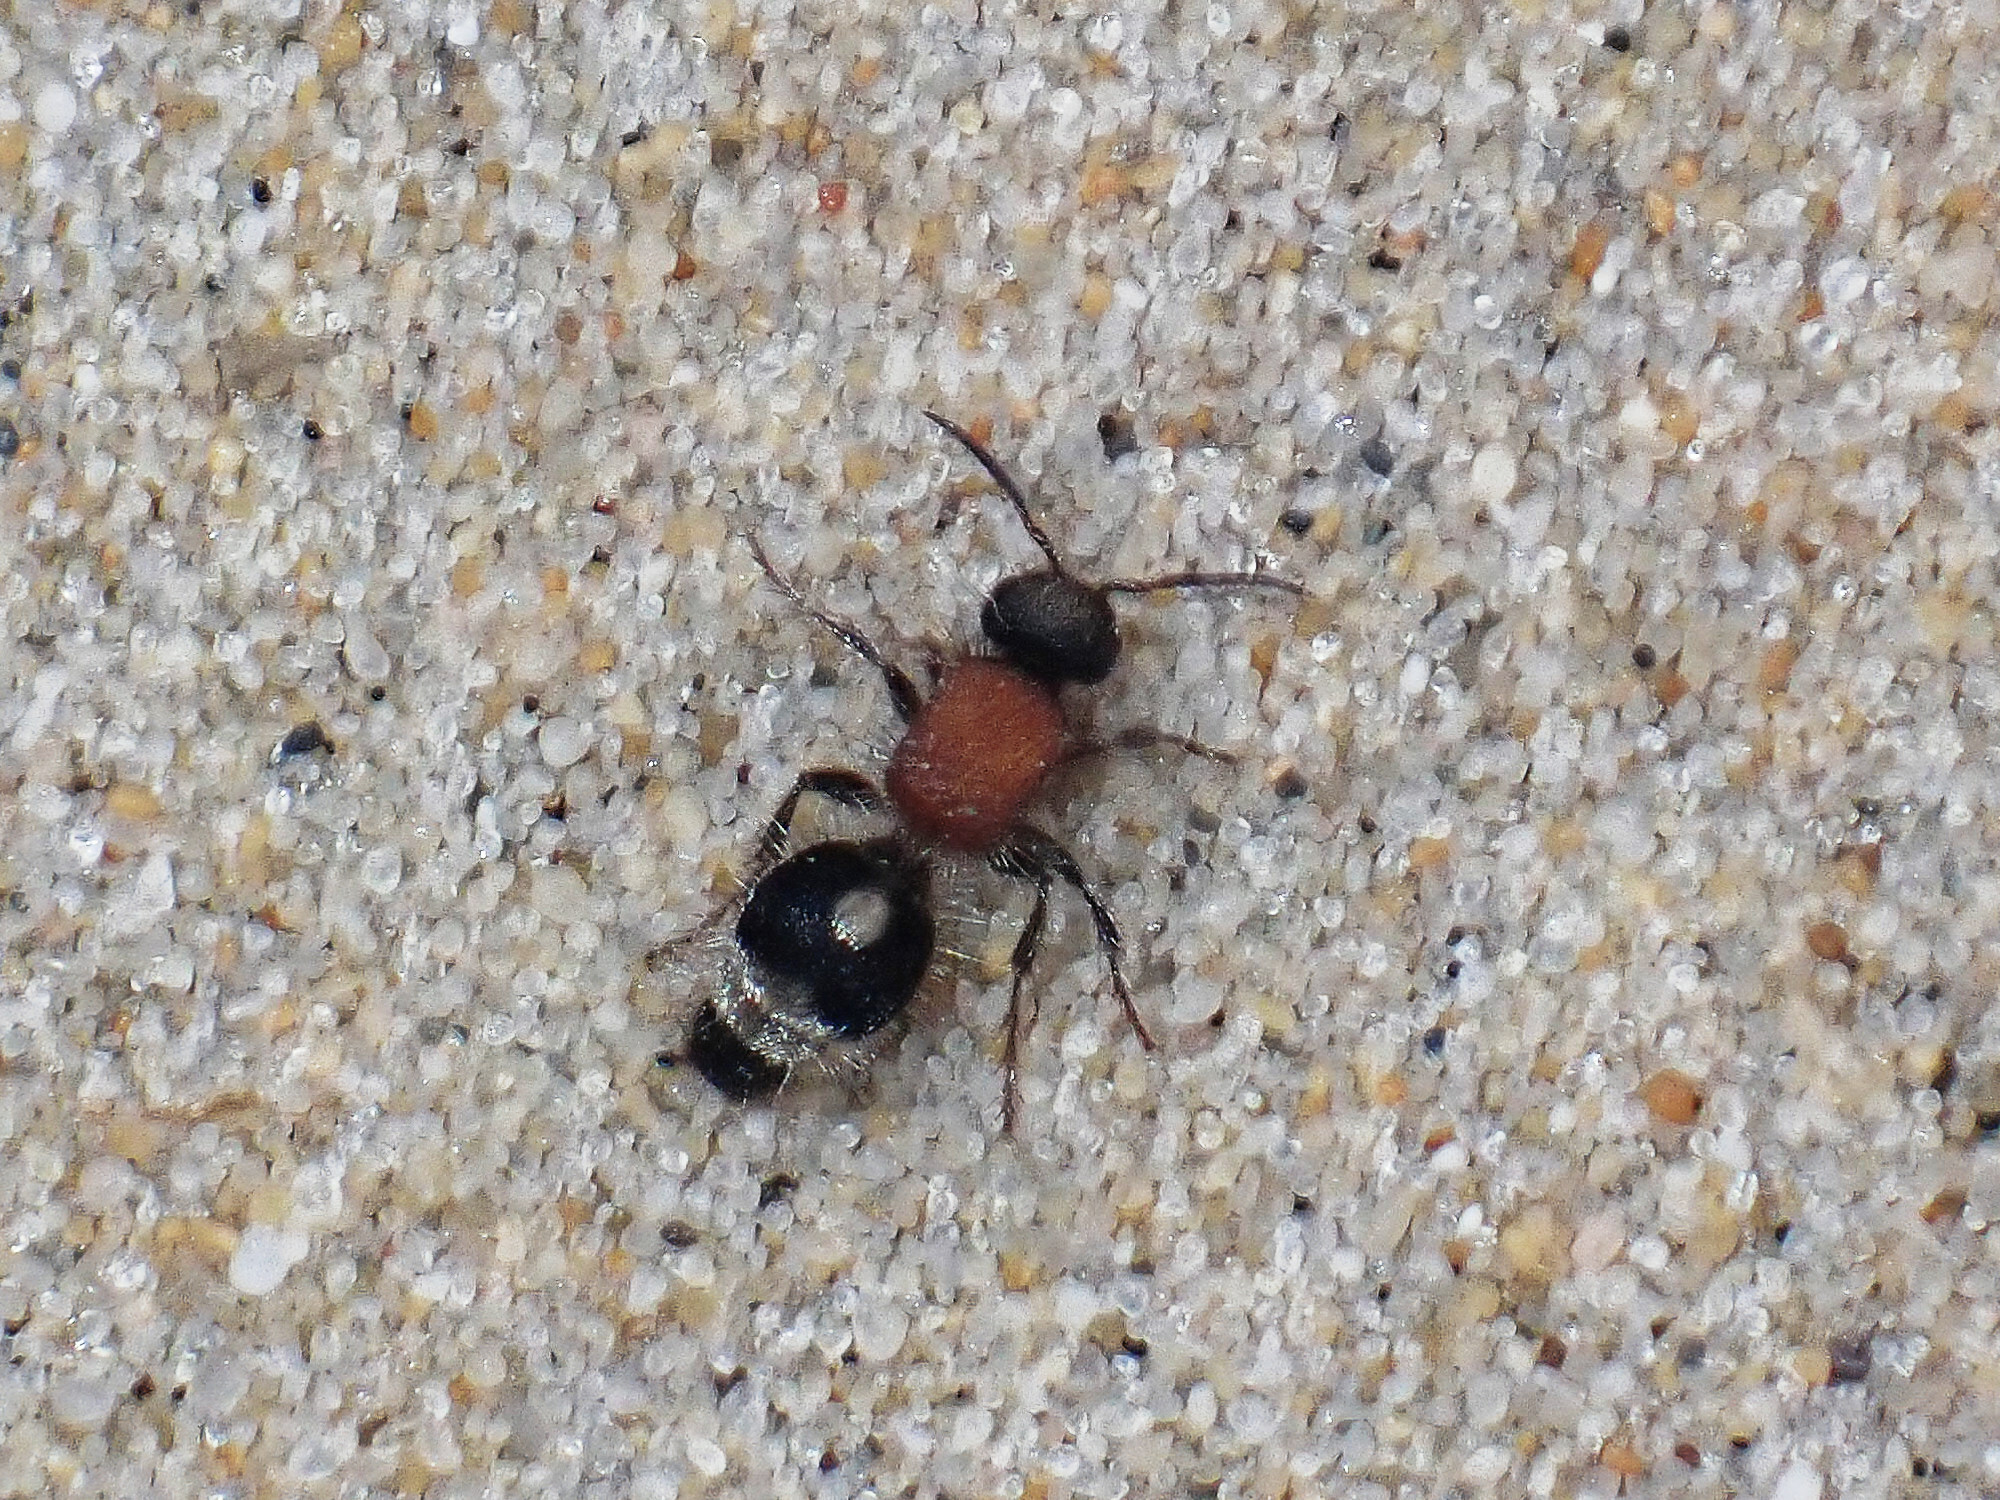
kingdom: Animalia
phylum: Arthropoda
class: Insecta
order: Hymenoptera
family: Mutillidae
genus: Nemka
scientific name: Nemka viduata
